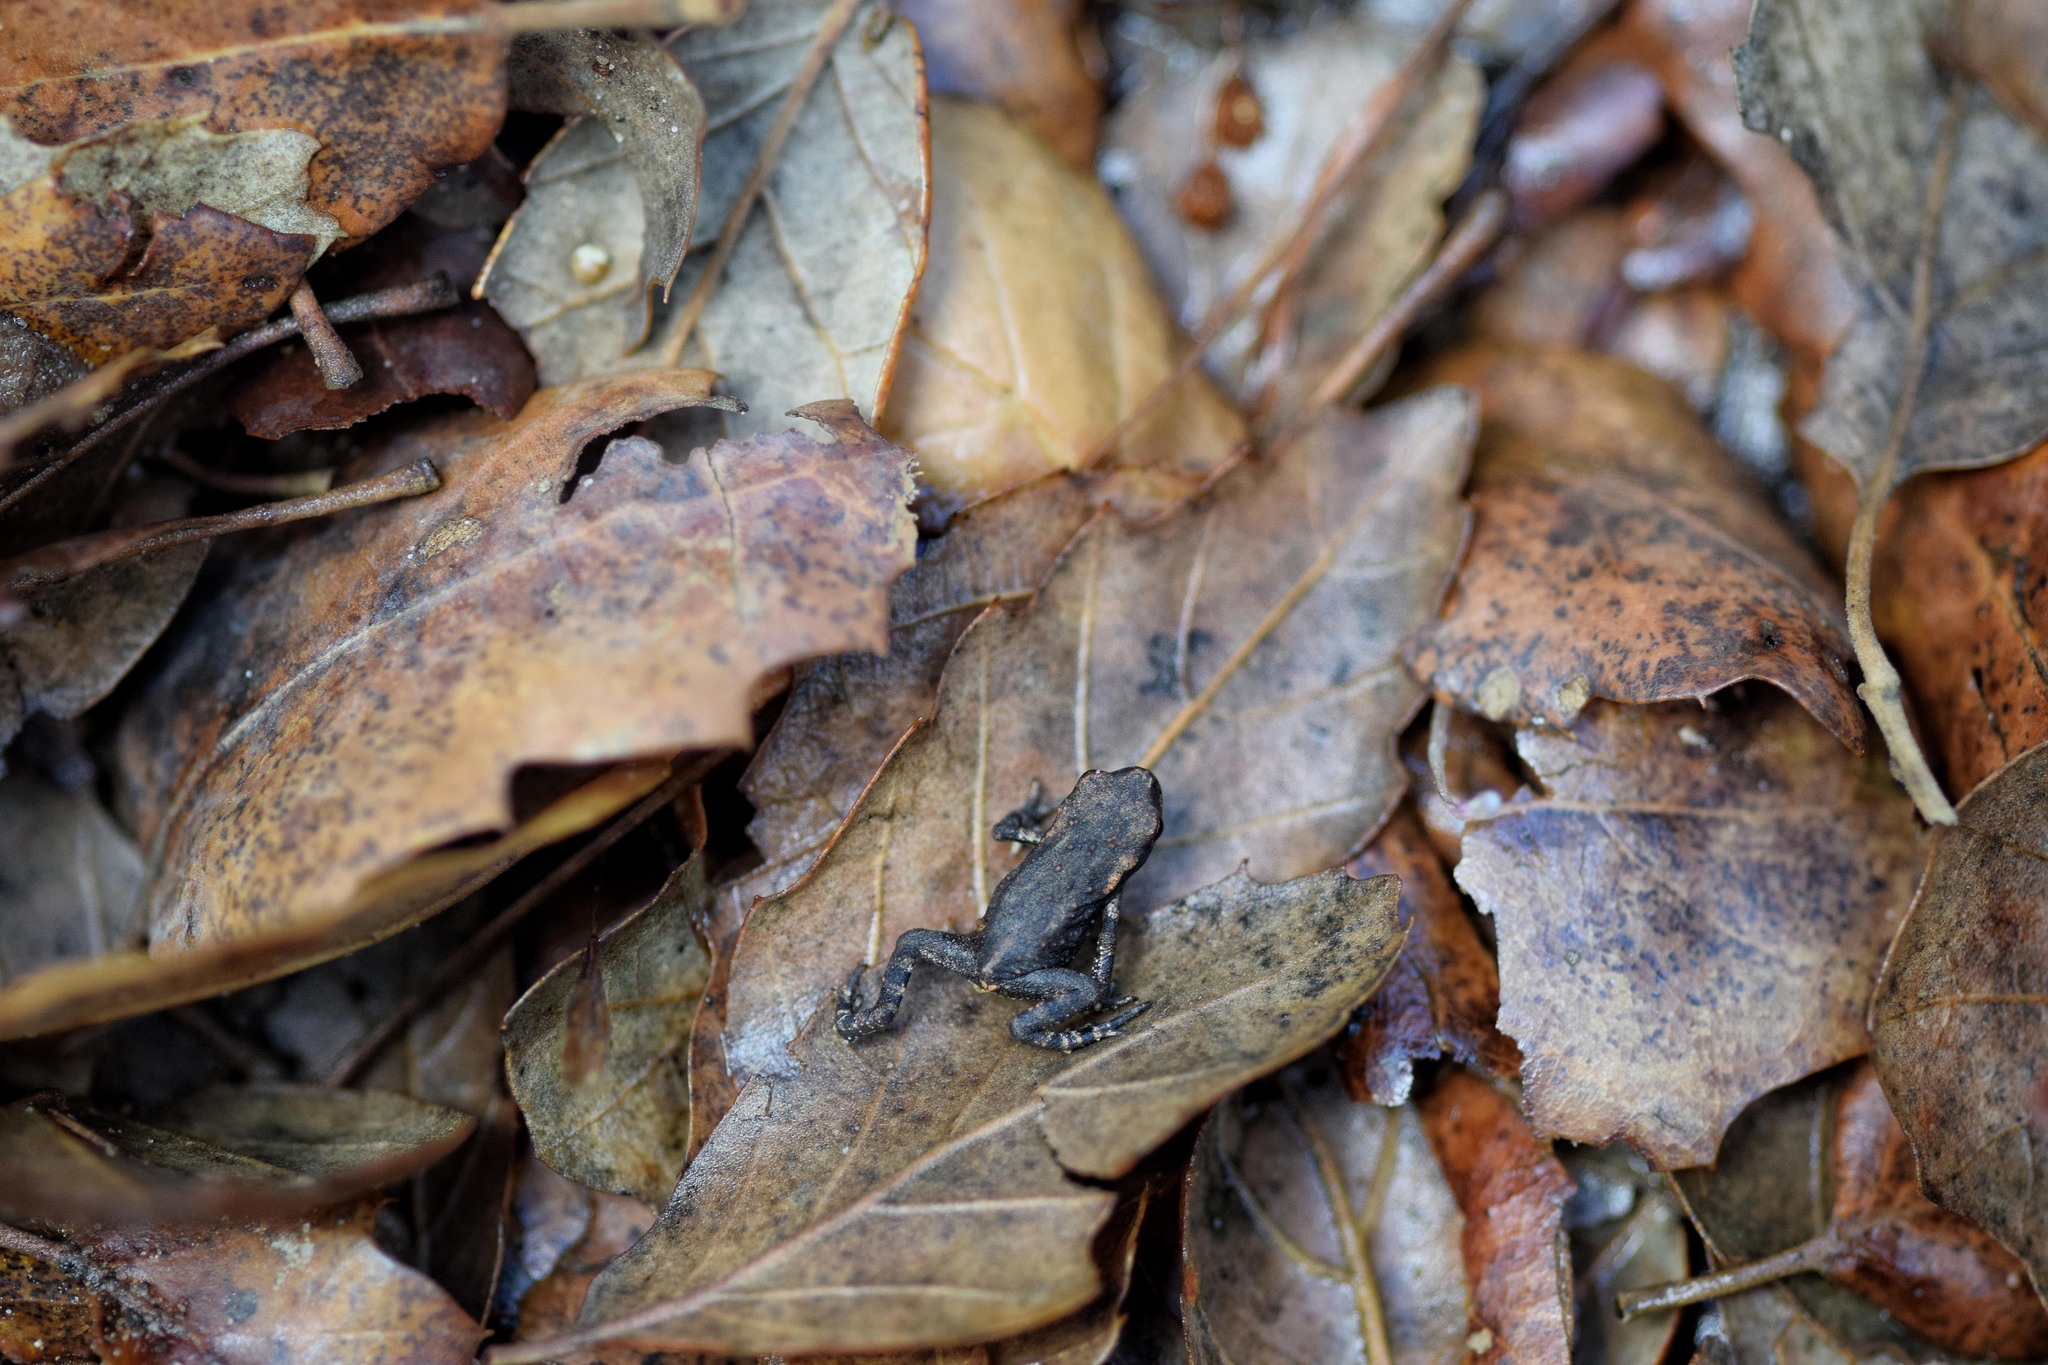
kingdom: Animalia
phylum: Chordata
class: Amphibia
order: Anura
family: Bufonidae
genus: Bufo
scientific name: Bufo spinosus
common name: Western common toad
